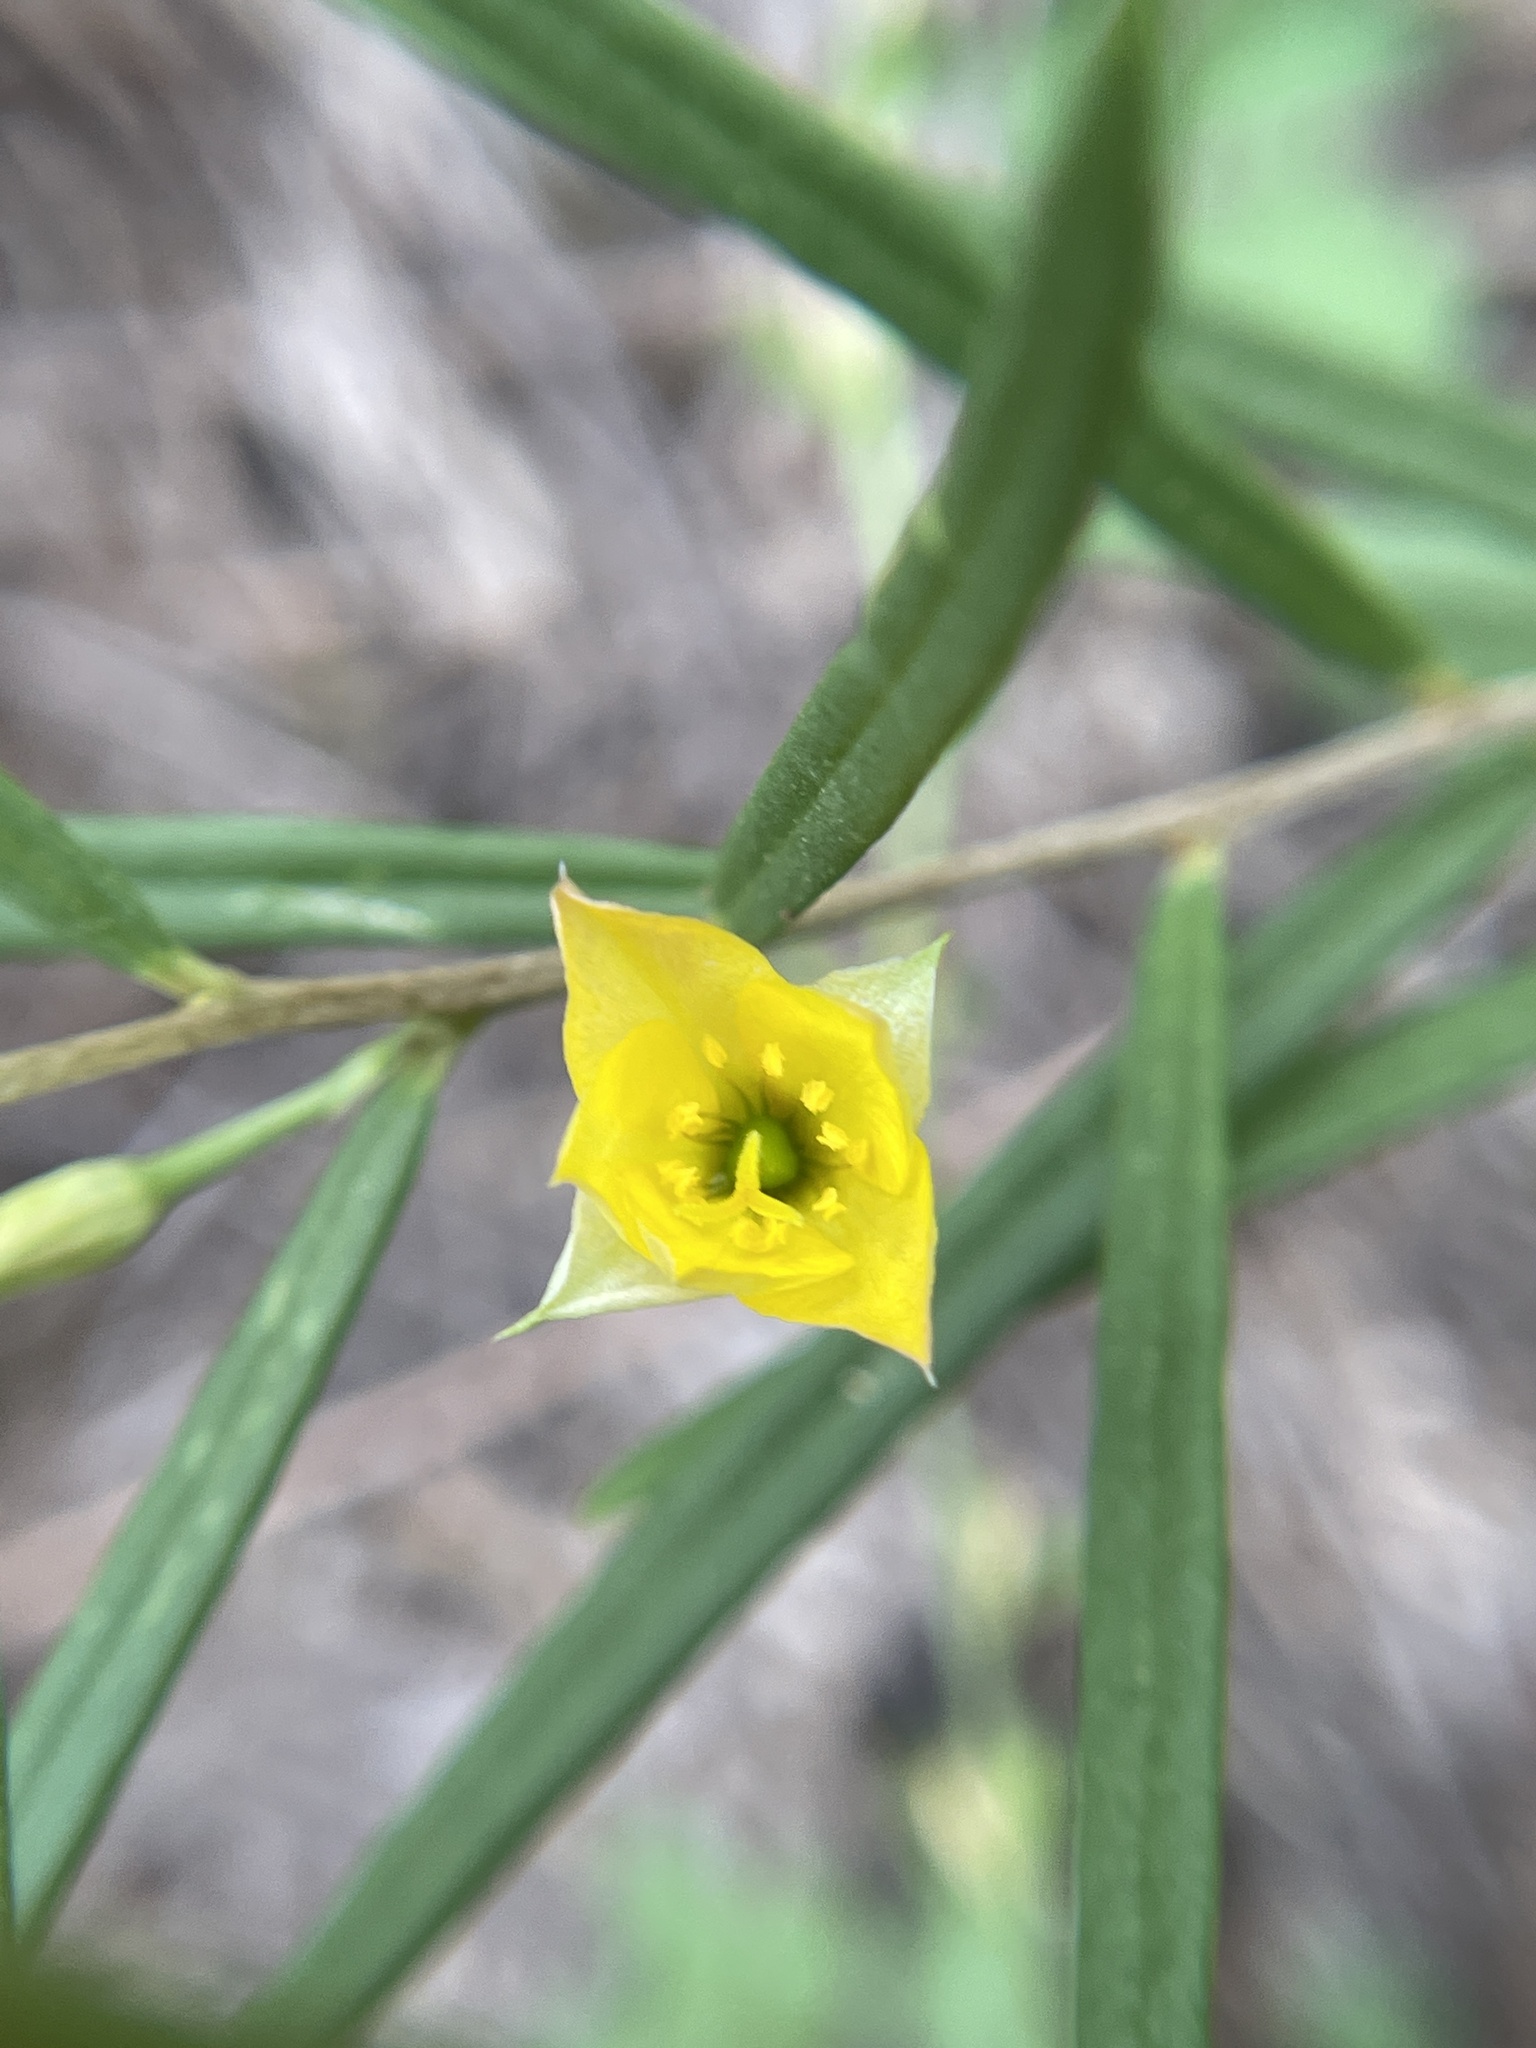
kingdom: Plantae
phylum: Tracheophyta
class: Magnoliopsida
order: Caryophyllales
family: Talinaceae
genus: Talinum
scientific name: Talinum polygaloides
